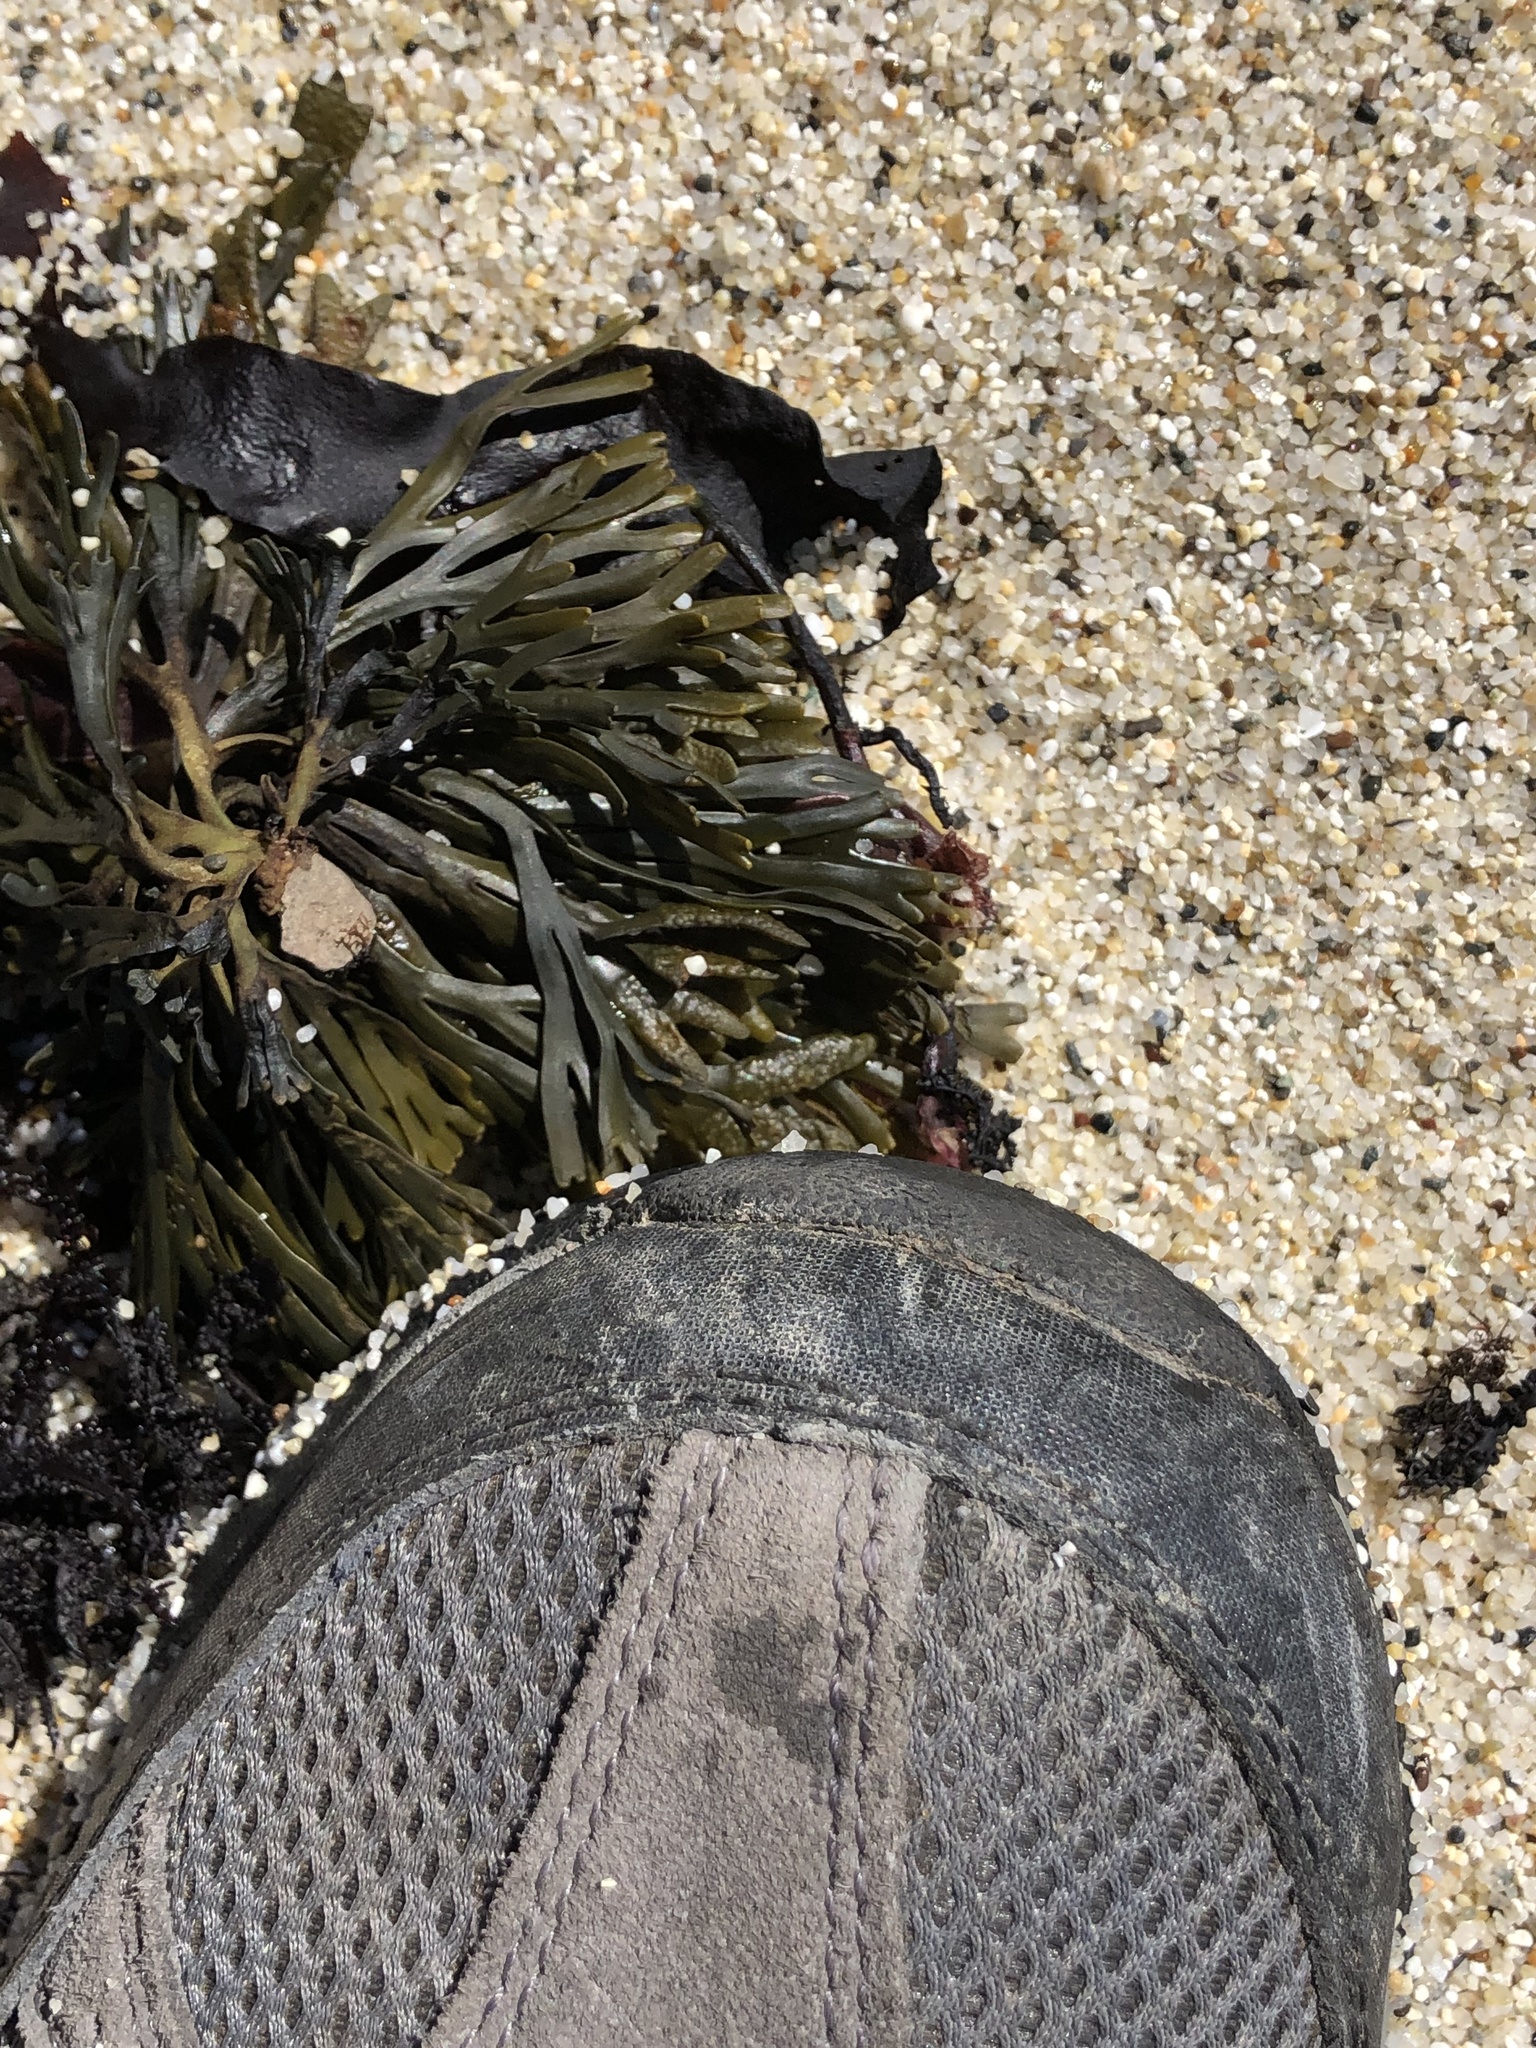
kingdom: Chromista
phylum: Ochrophyta
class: Phaeophyceae
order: Fucales
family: Fucaceae
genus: Pelvetiopsis
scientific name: Pelvetiopsis limitata
